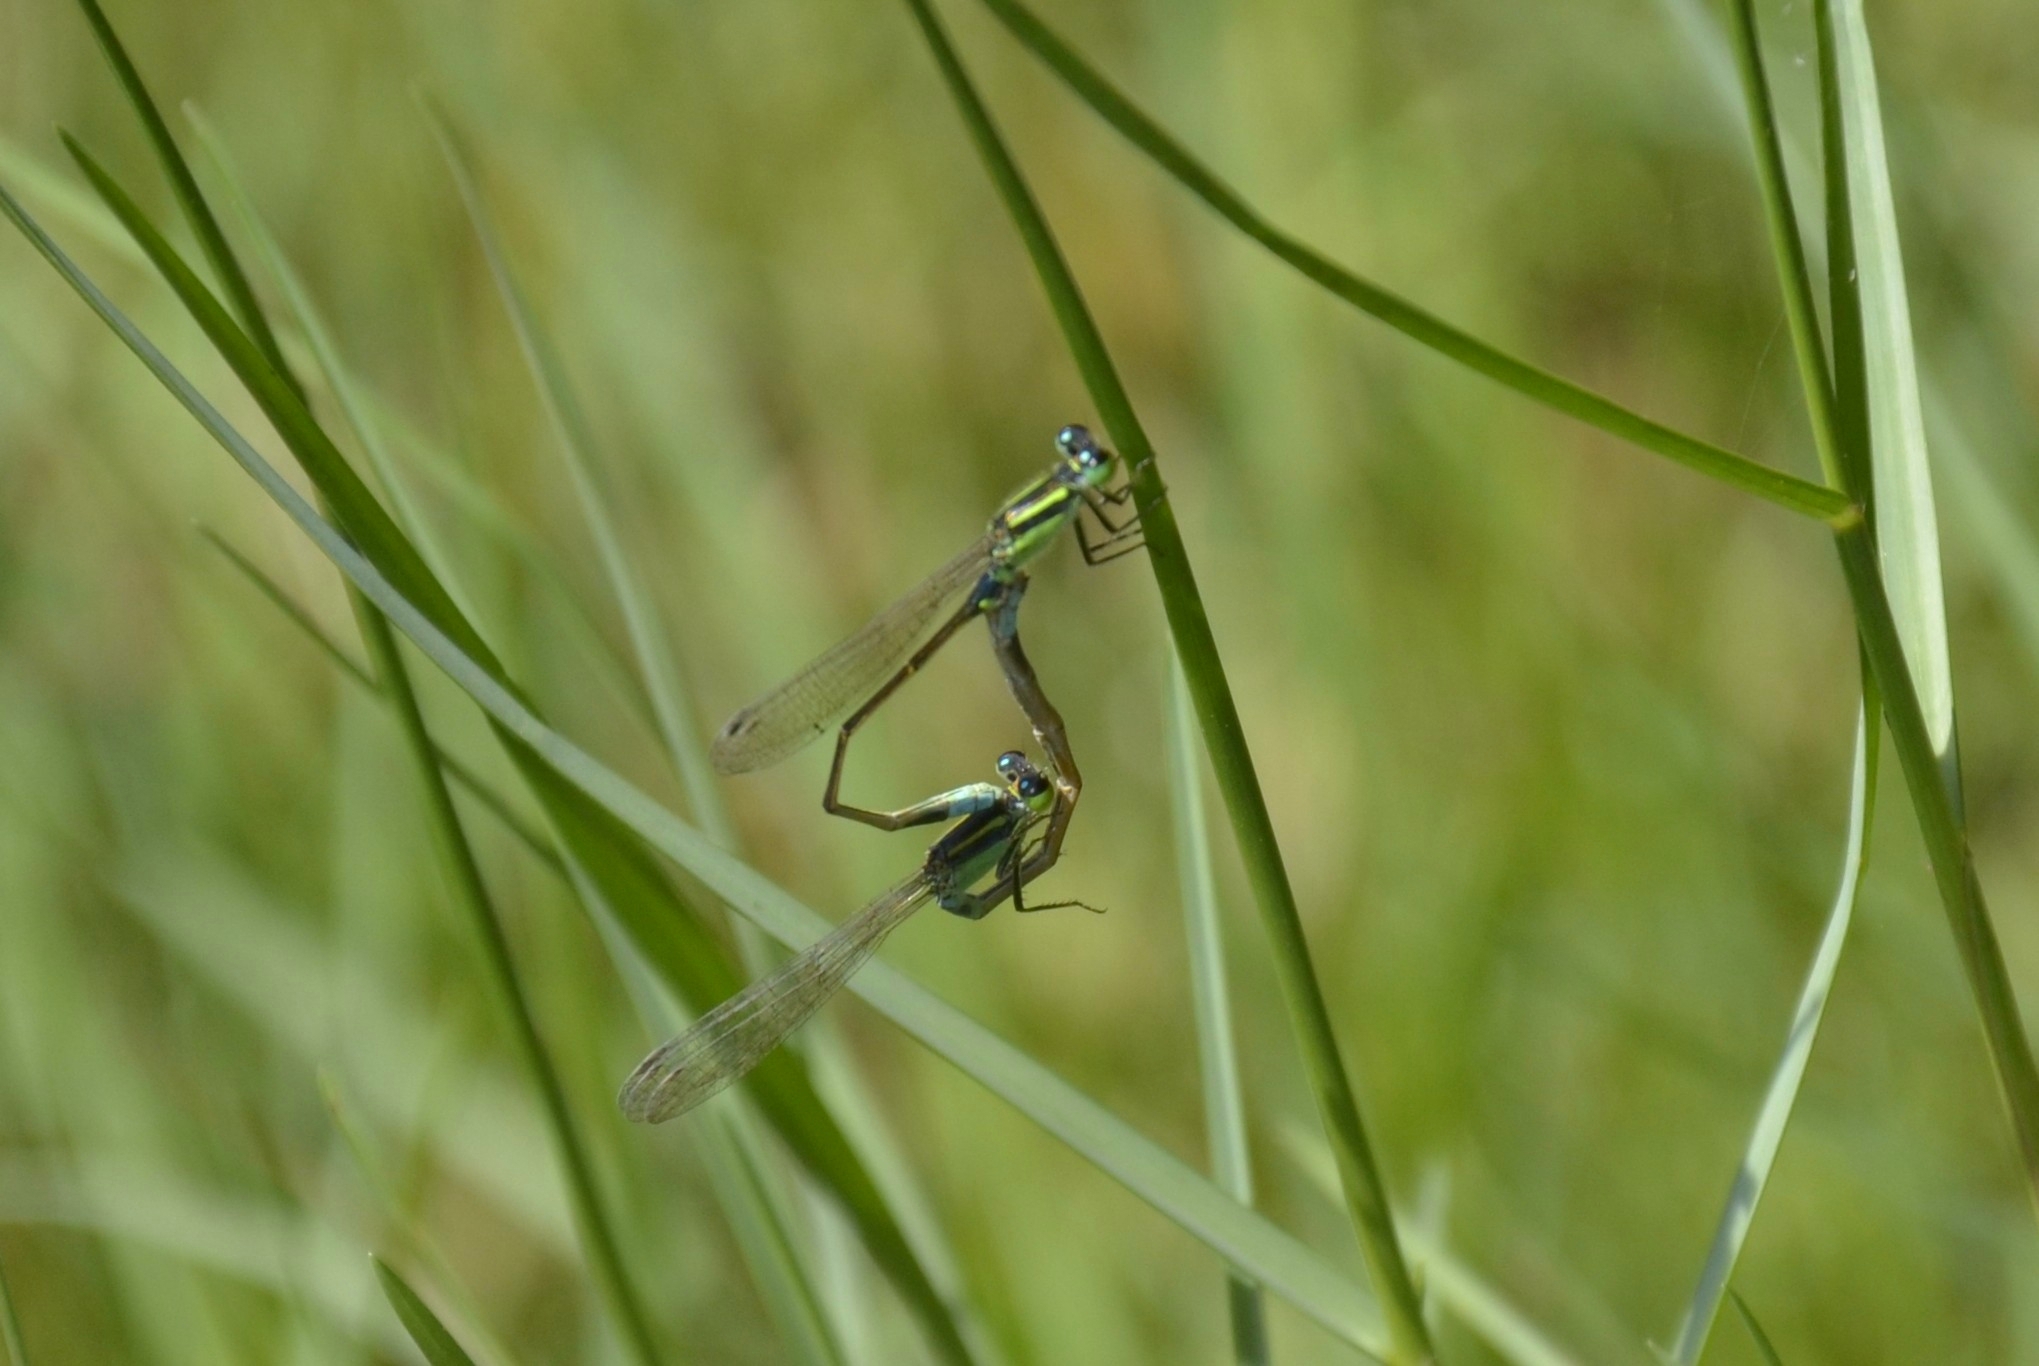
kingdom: Animalia
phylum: Arthropoda
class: Insecta
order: Odonata
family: Coenagrionidae
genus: Ischnura
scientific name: Ischnura senegalensis
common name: Tropical bluetail
